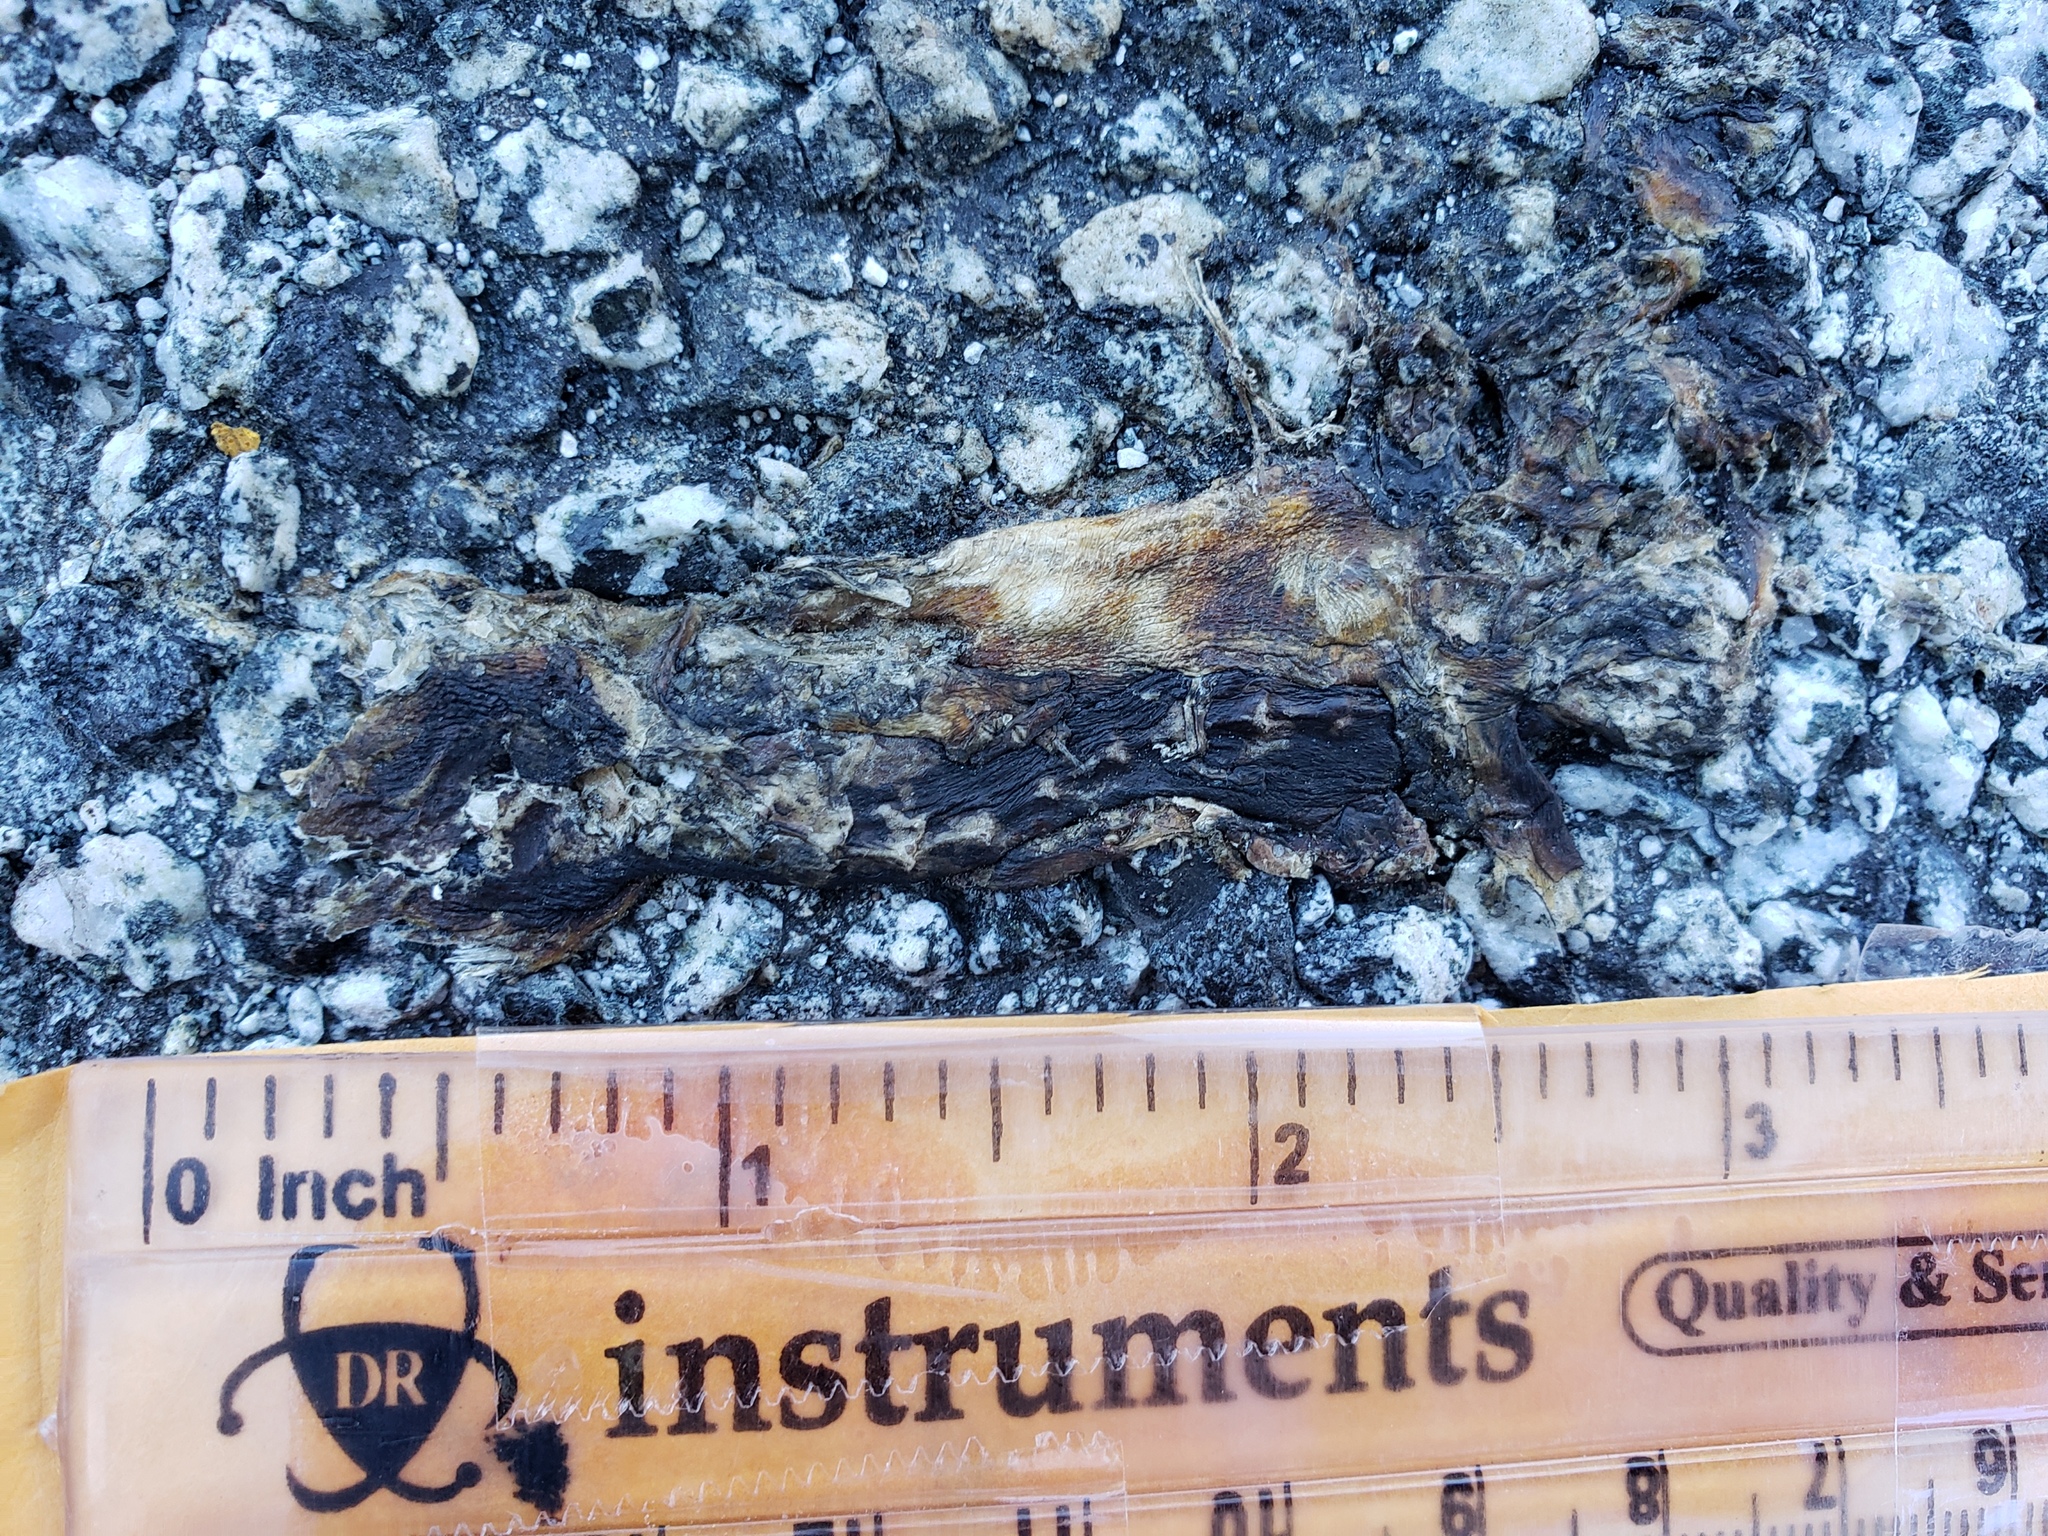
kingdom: Animalia
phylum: Chordata
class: Amphibia
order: Caudata
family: Salamandridae
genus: Taricha
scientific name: Taricha
